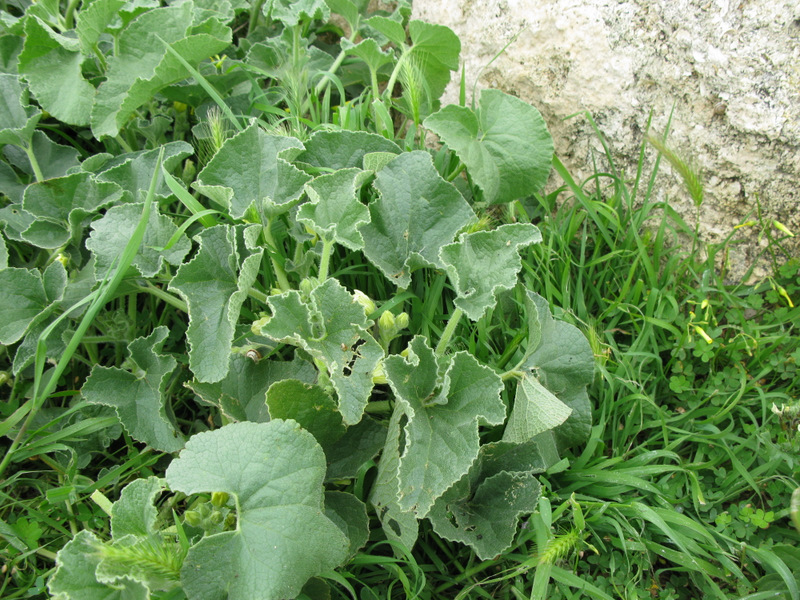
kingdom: Plantae
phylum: Tracheophyta
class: Magnoliopsida
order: Cucurbitales
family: Cucurbitaceae
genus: Ecballium
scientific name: Ecballium elaterium
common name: Squirting cucumber
